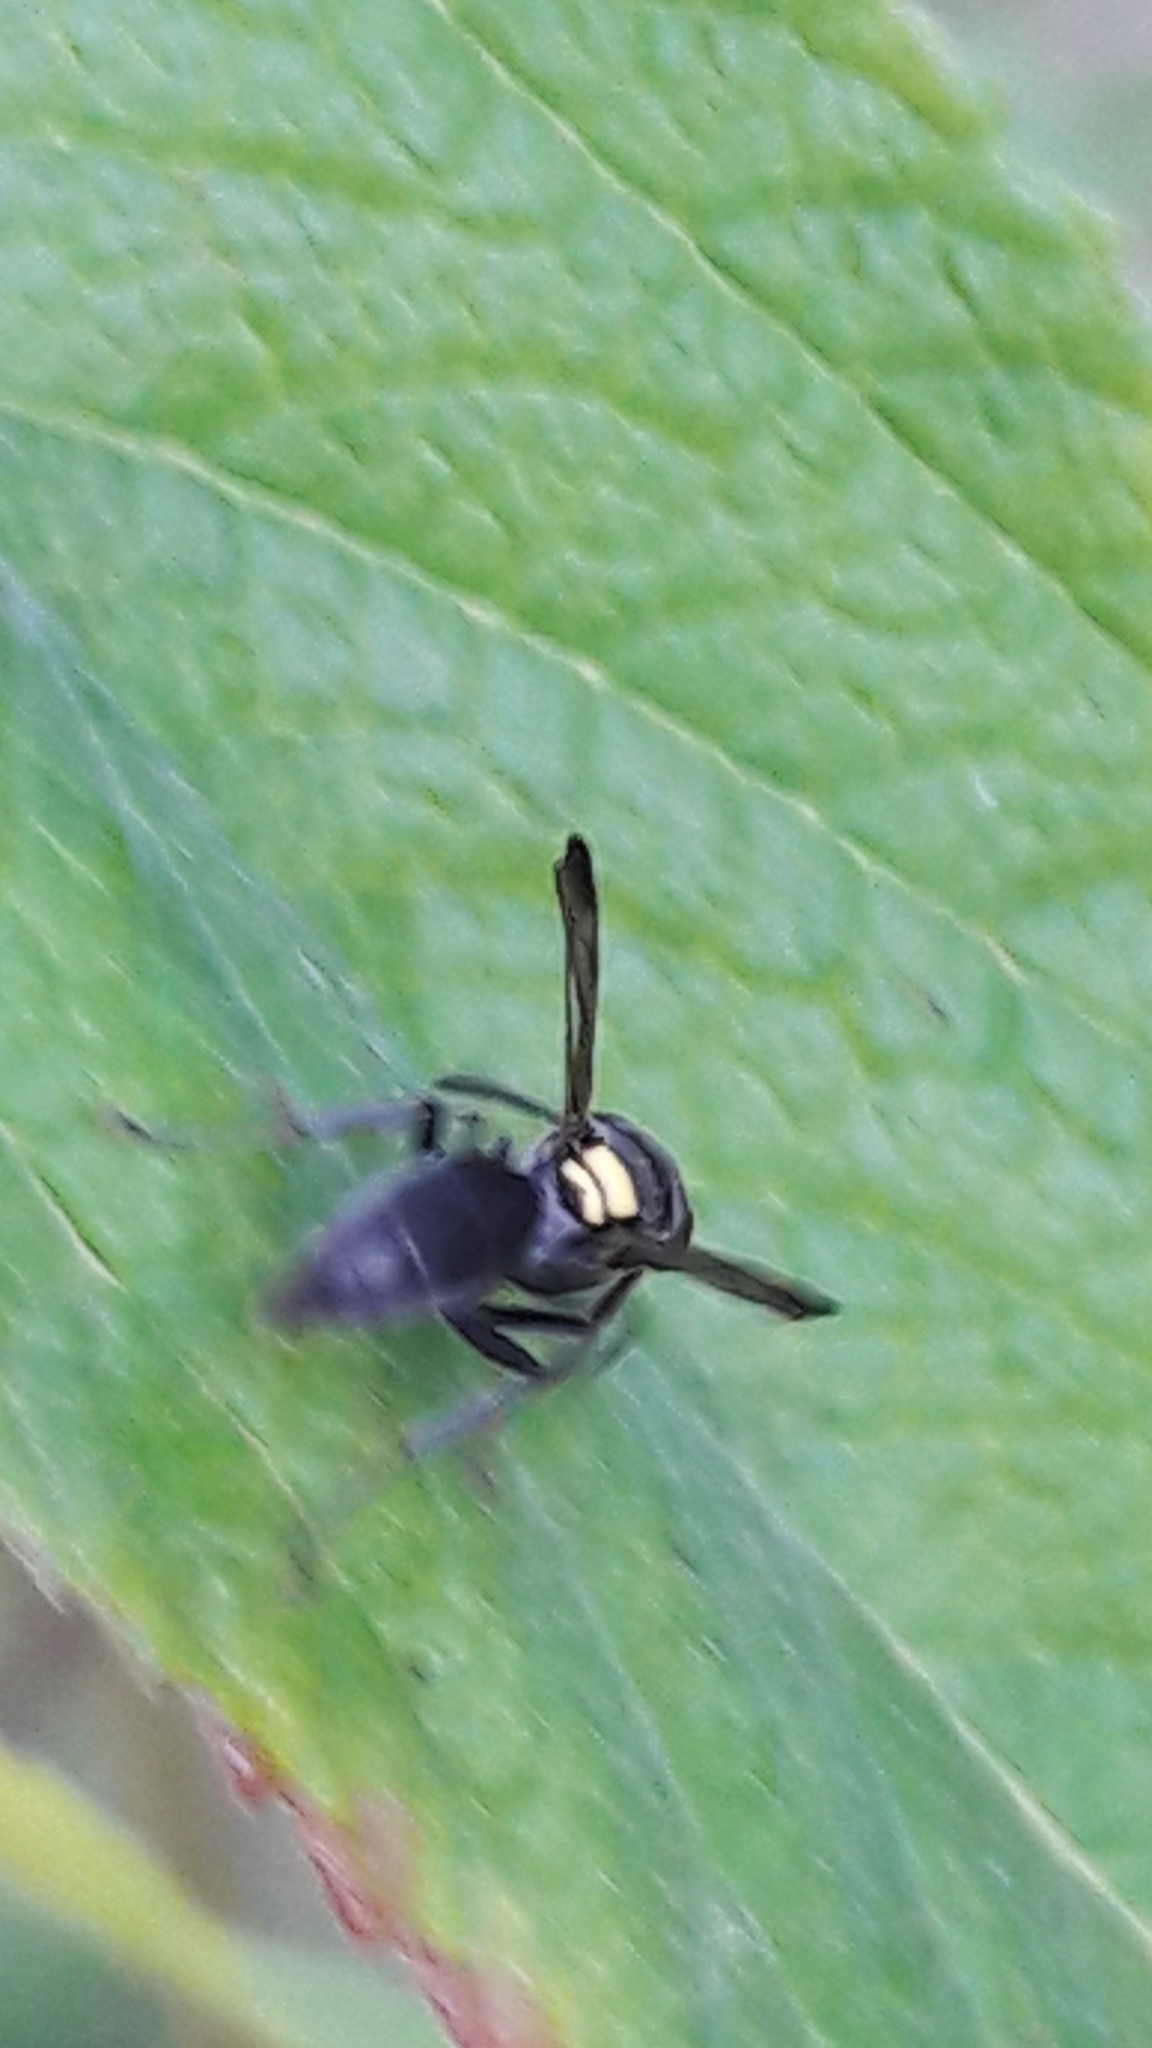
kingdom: Animalia
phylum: Arthropoda
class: Insecta
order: Hymenoptera
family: Eumenidae
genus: Polybia
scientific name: Polybia scutellaris
